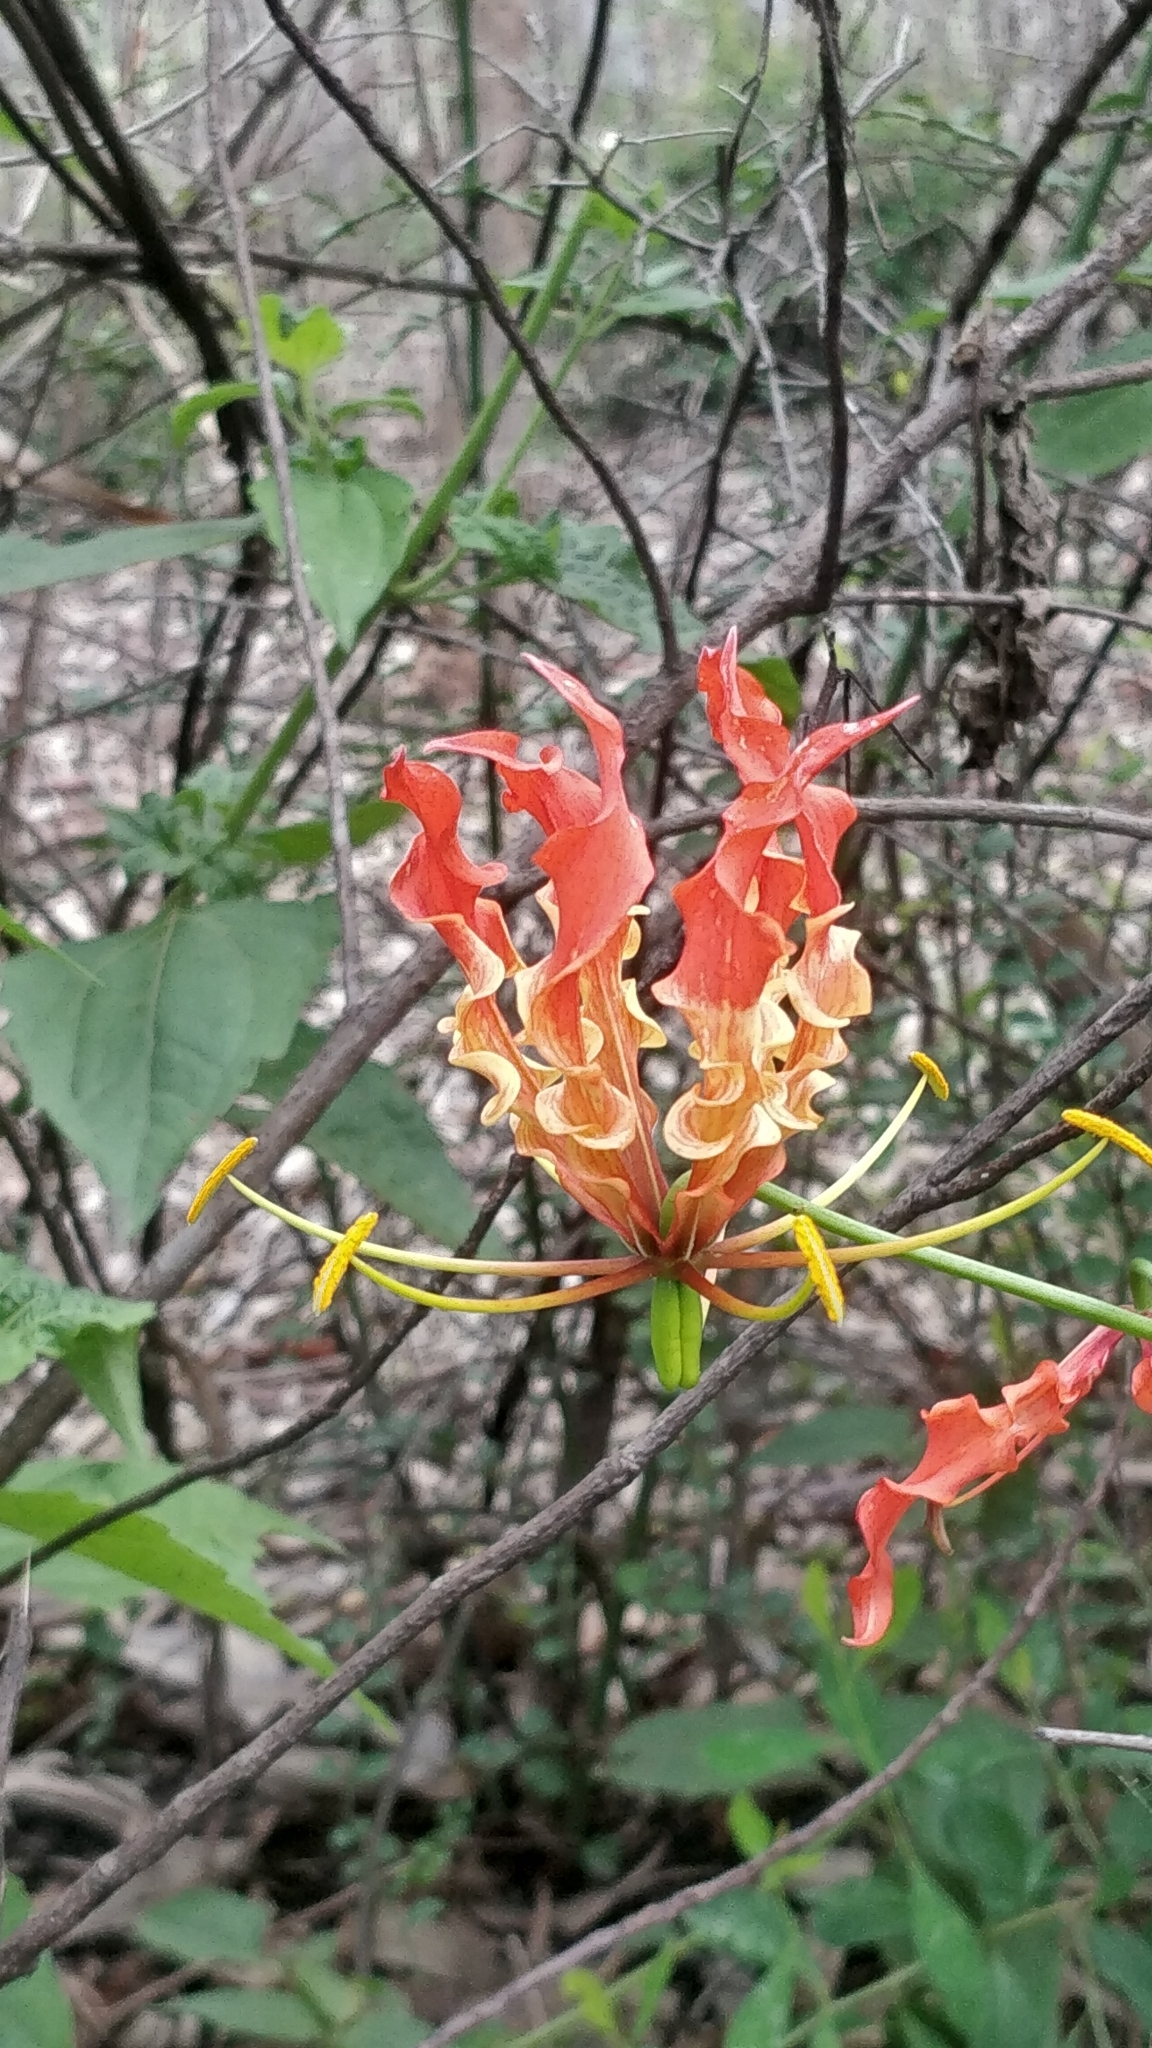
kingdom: Plantae
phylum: Tracheophyta
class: Liliopsida
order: Liliales
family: Colchicaceae
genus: Gloriosa
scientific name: Gloriosa superba
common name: Flame lily
